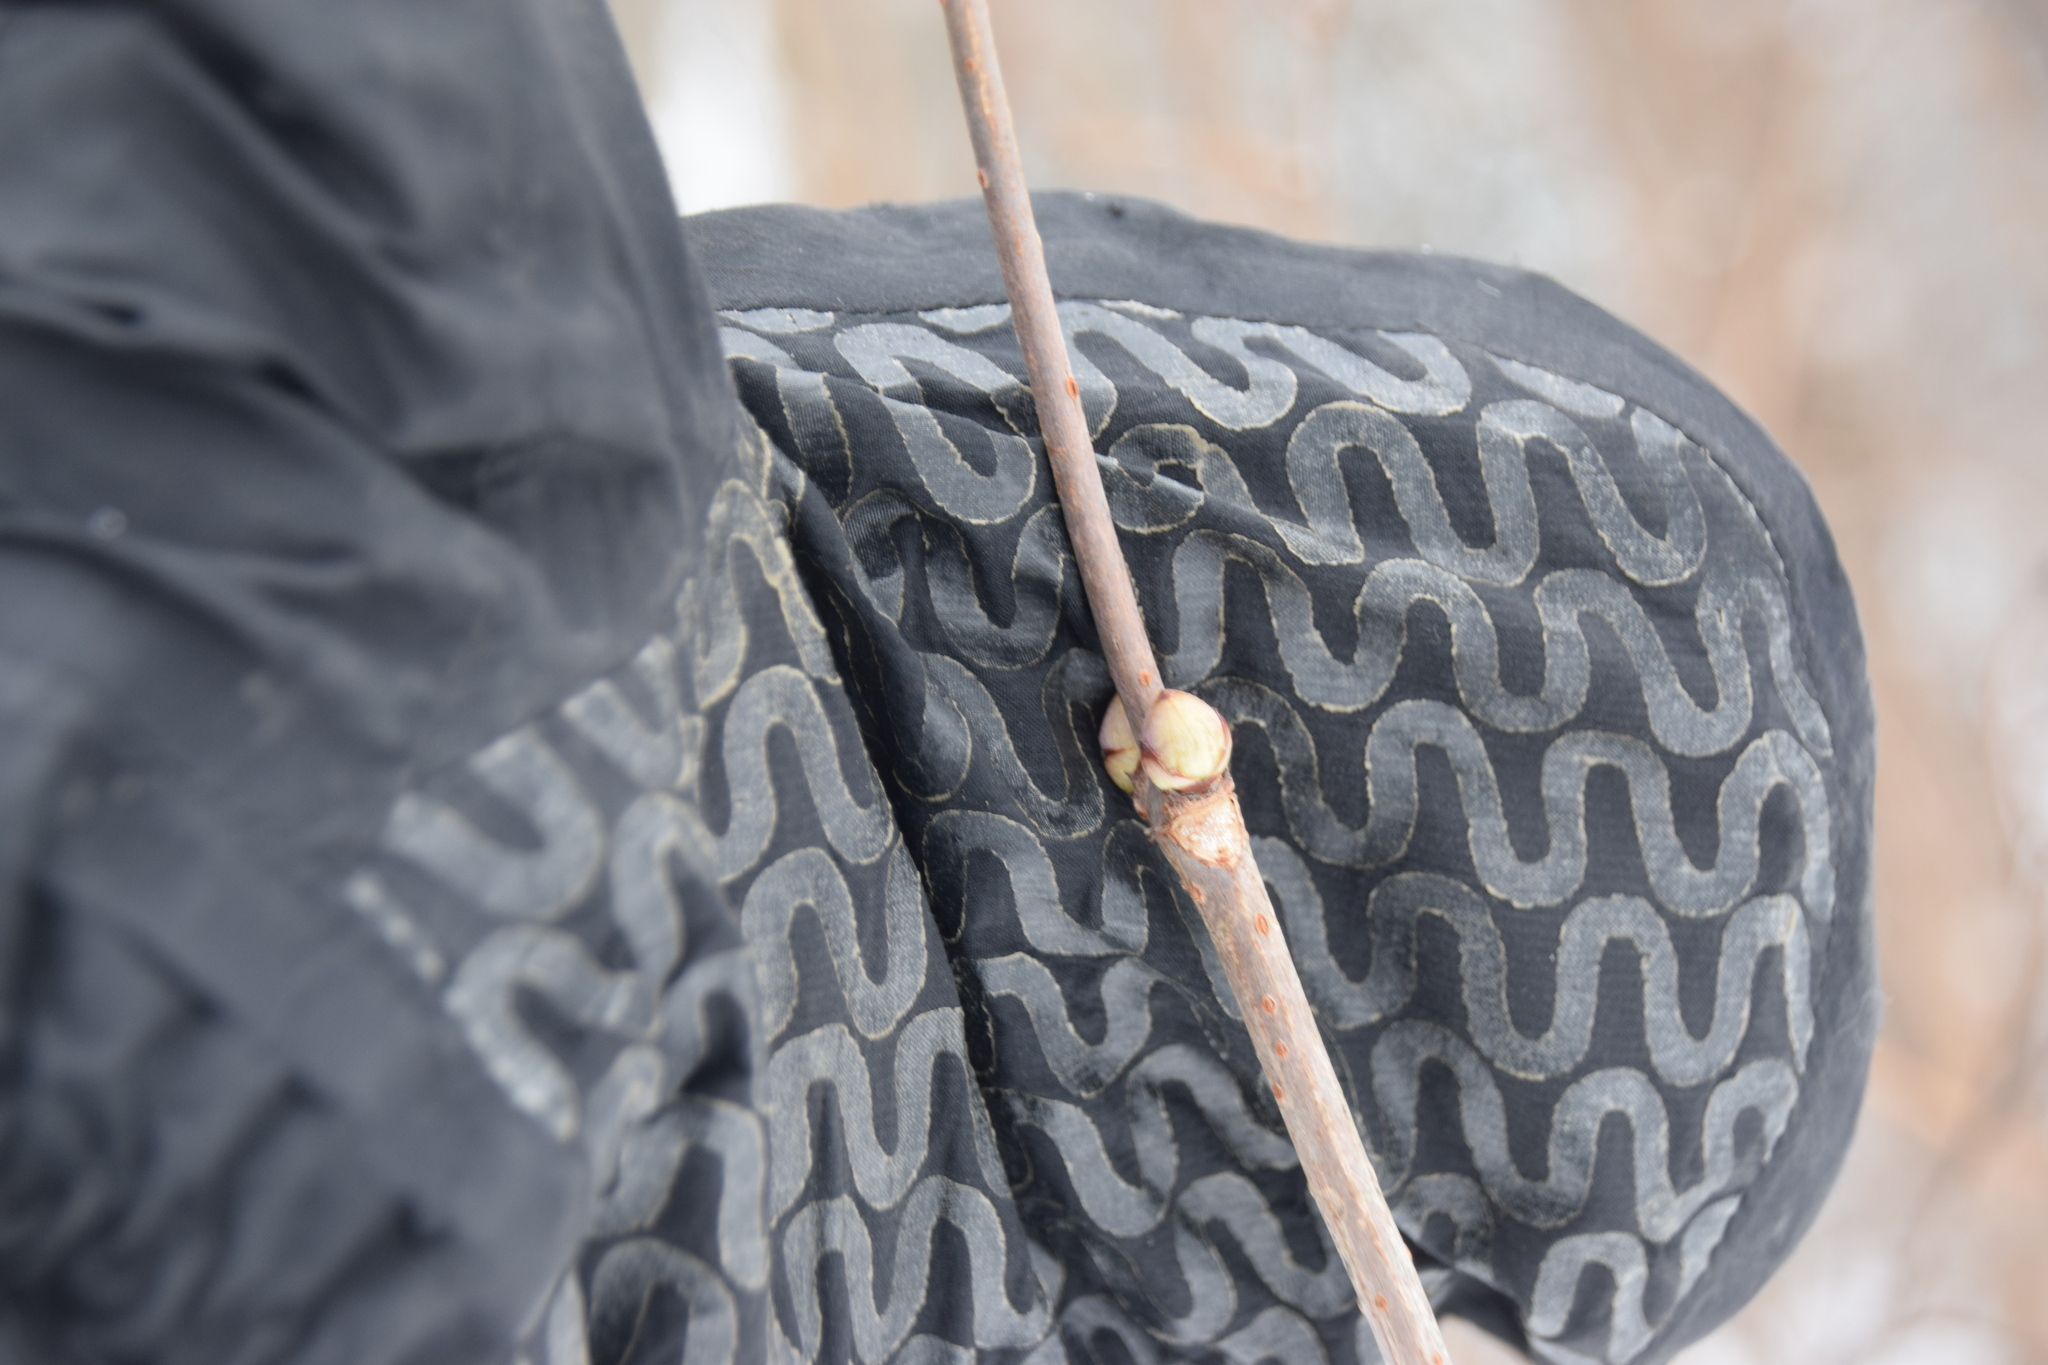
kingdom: Plantae
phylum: Tracheophyta
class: Magnoliopsida
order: Dipsacales
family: Viburnaceae
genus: Sambucus
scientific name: Sambucus racemosa
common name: Red-berried elder
